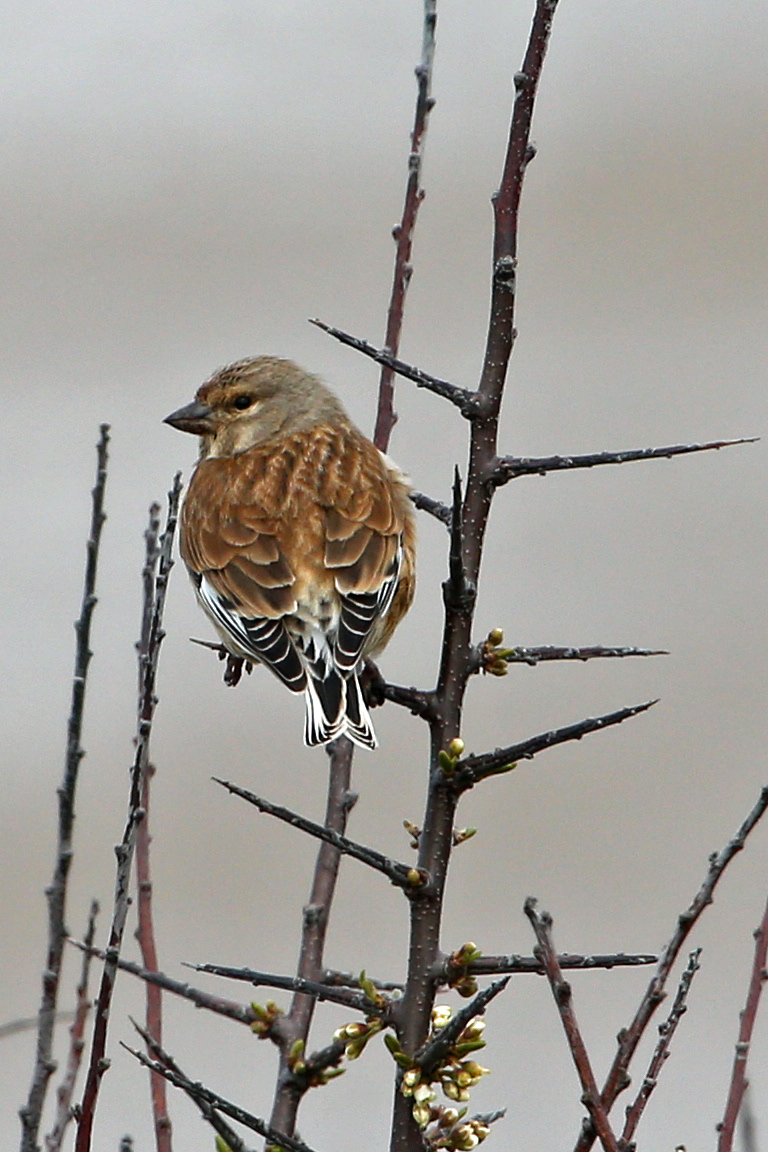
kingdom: Animalia
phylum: Chordata
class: Aves
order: Passeriformes
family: Fringillidae
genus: Linaria
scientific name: Linaria cannabina
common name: Common linnet
